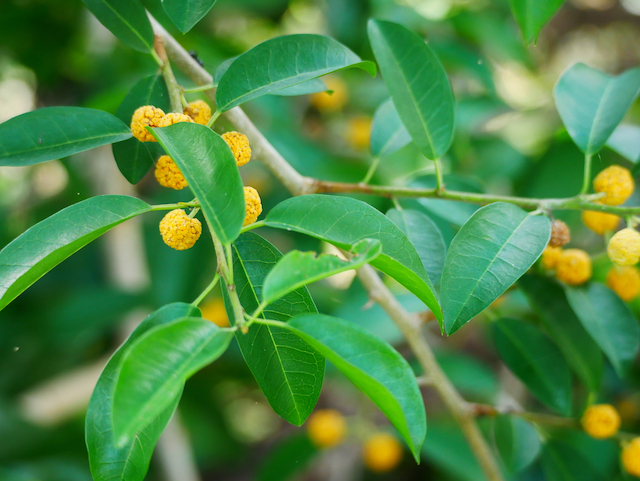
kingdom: Plantae
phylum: Tracheophyta
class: Magnoliopsida
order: Rosales
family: Moraceae
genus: Maclura
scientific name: Maclura cochinchinensis
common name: Cockspurthorn
